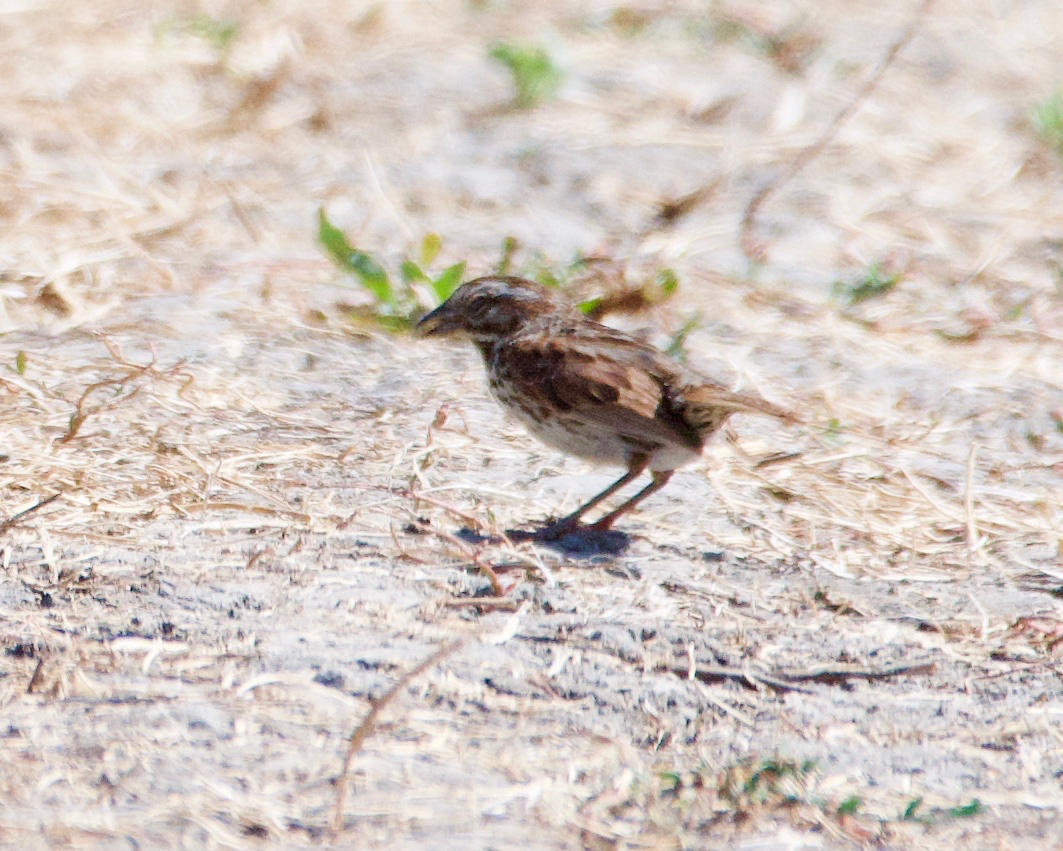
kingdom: Animalia
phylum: Chordata
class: Aves
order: Passeriformes
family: Passerellidae
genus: Melospiza
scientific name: Melospiza melodia
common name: Song sparrow
